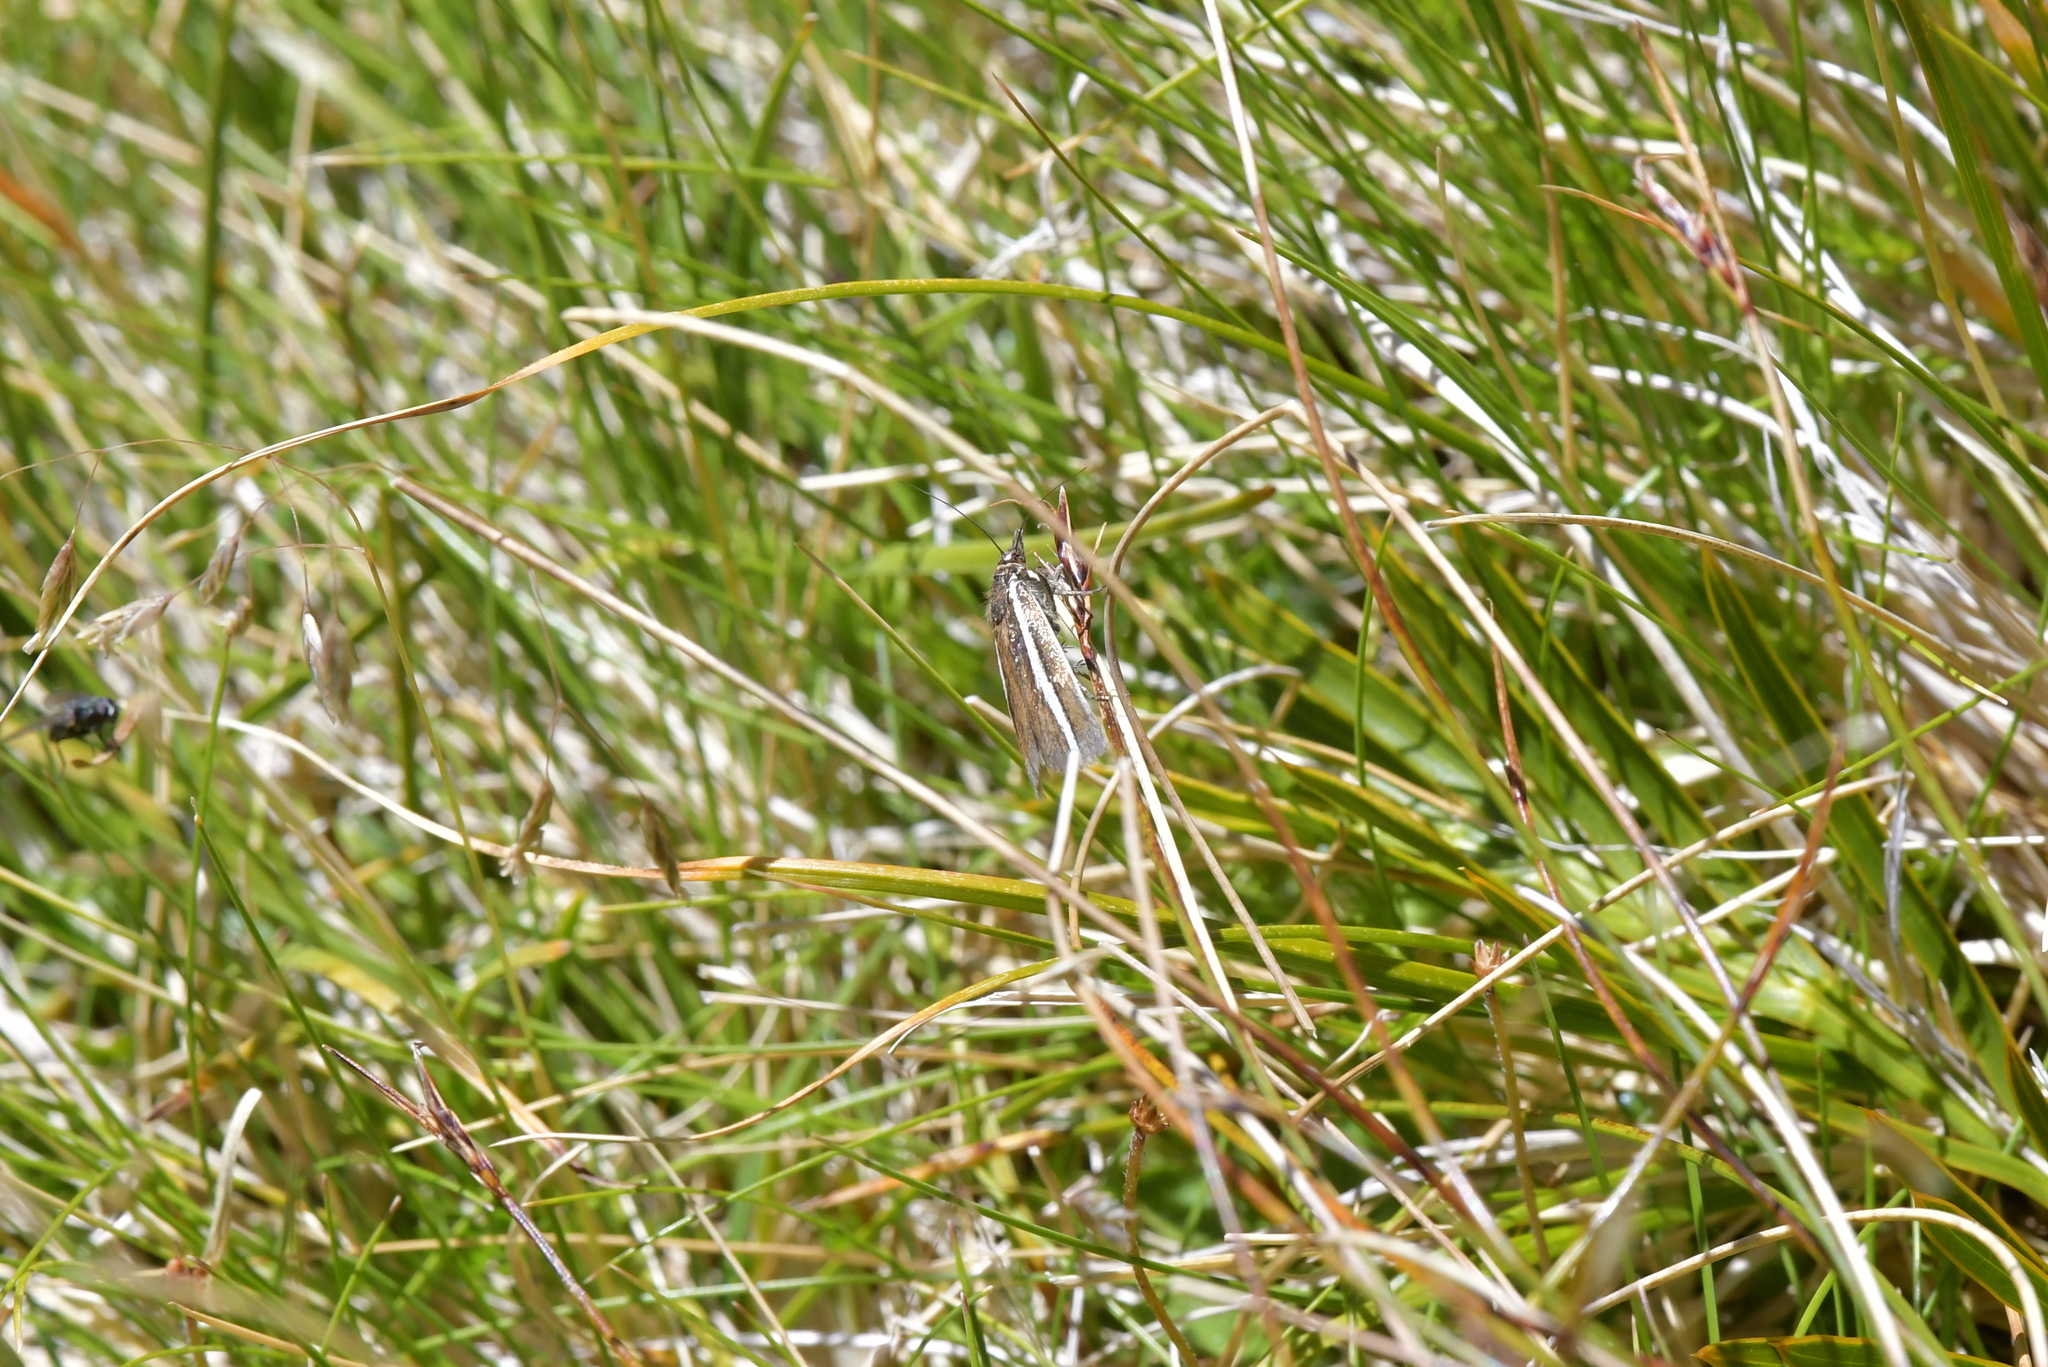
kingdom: Animalia
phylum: Arthropoda
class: Insecta
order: Lepidoptera
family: Crambidae
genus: Orocrambus
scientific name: Orocrambus catacaustus
